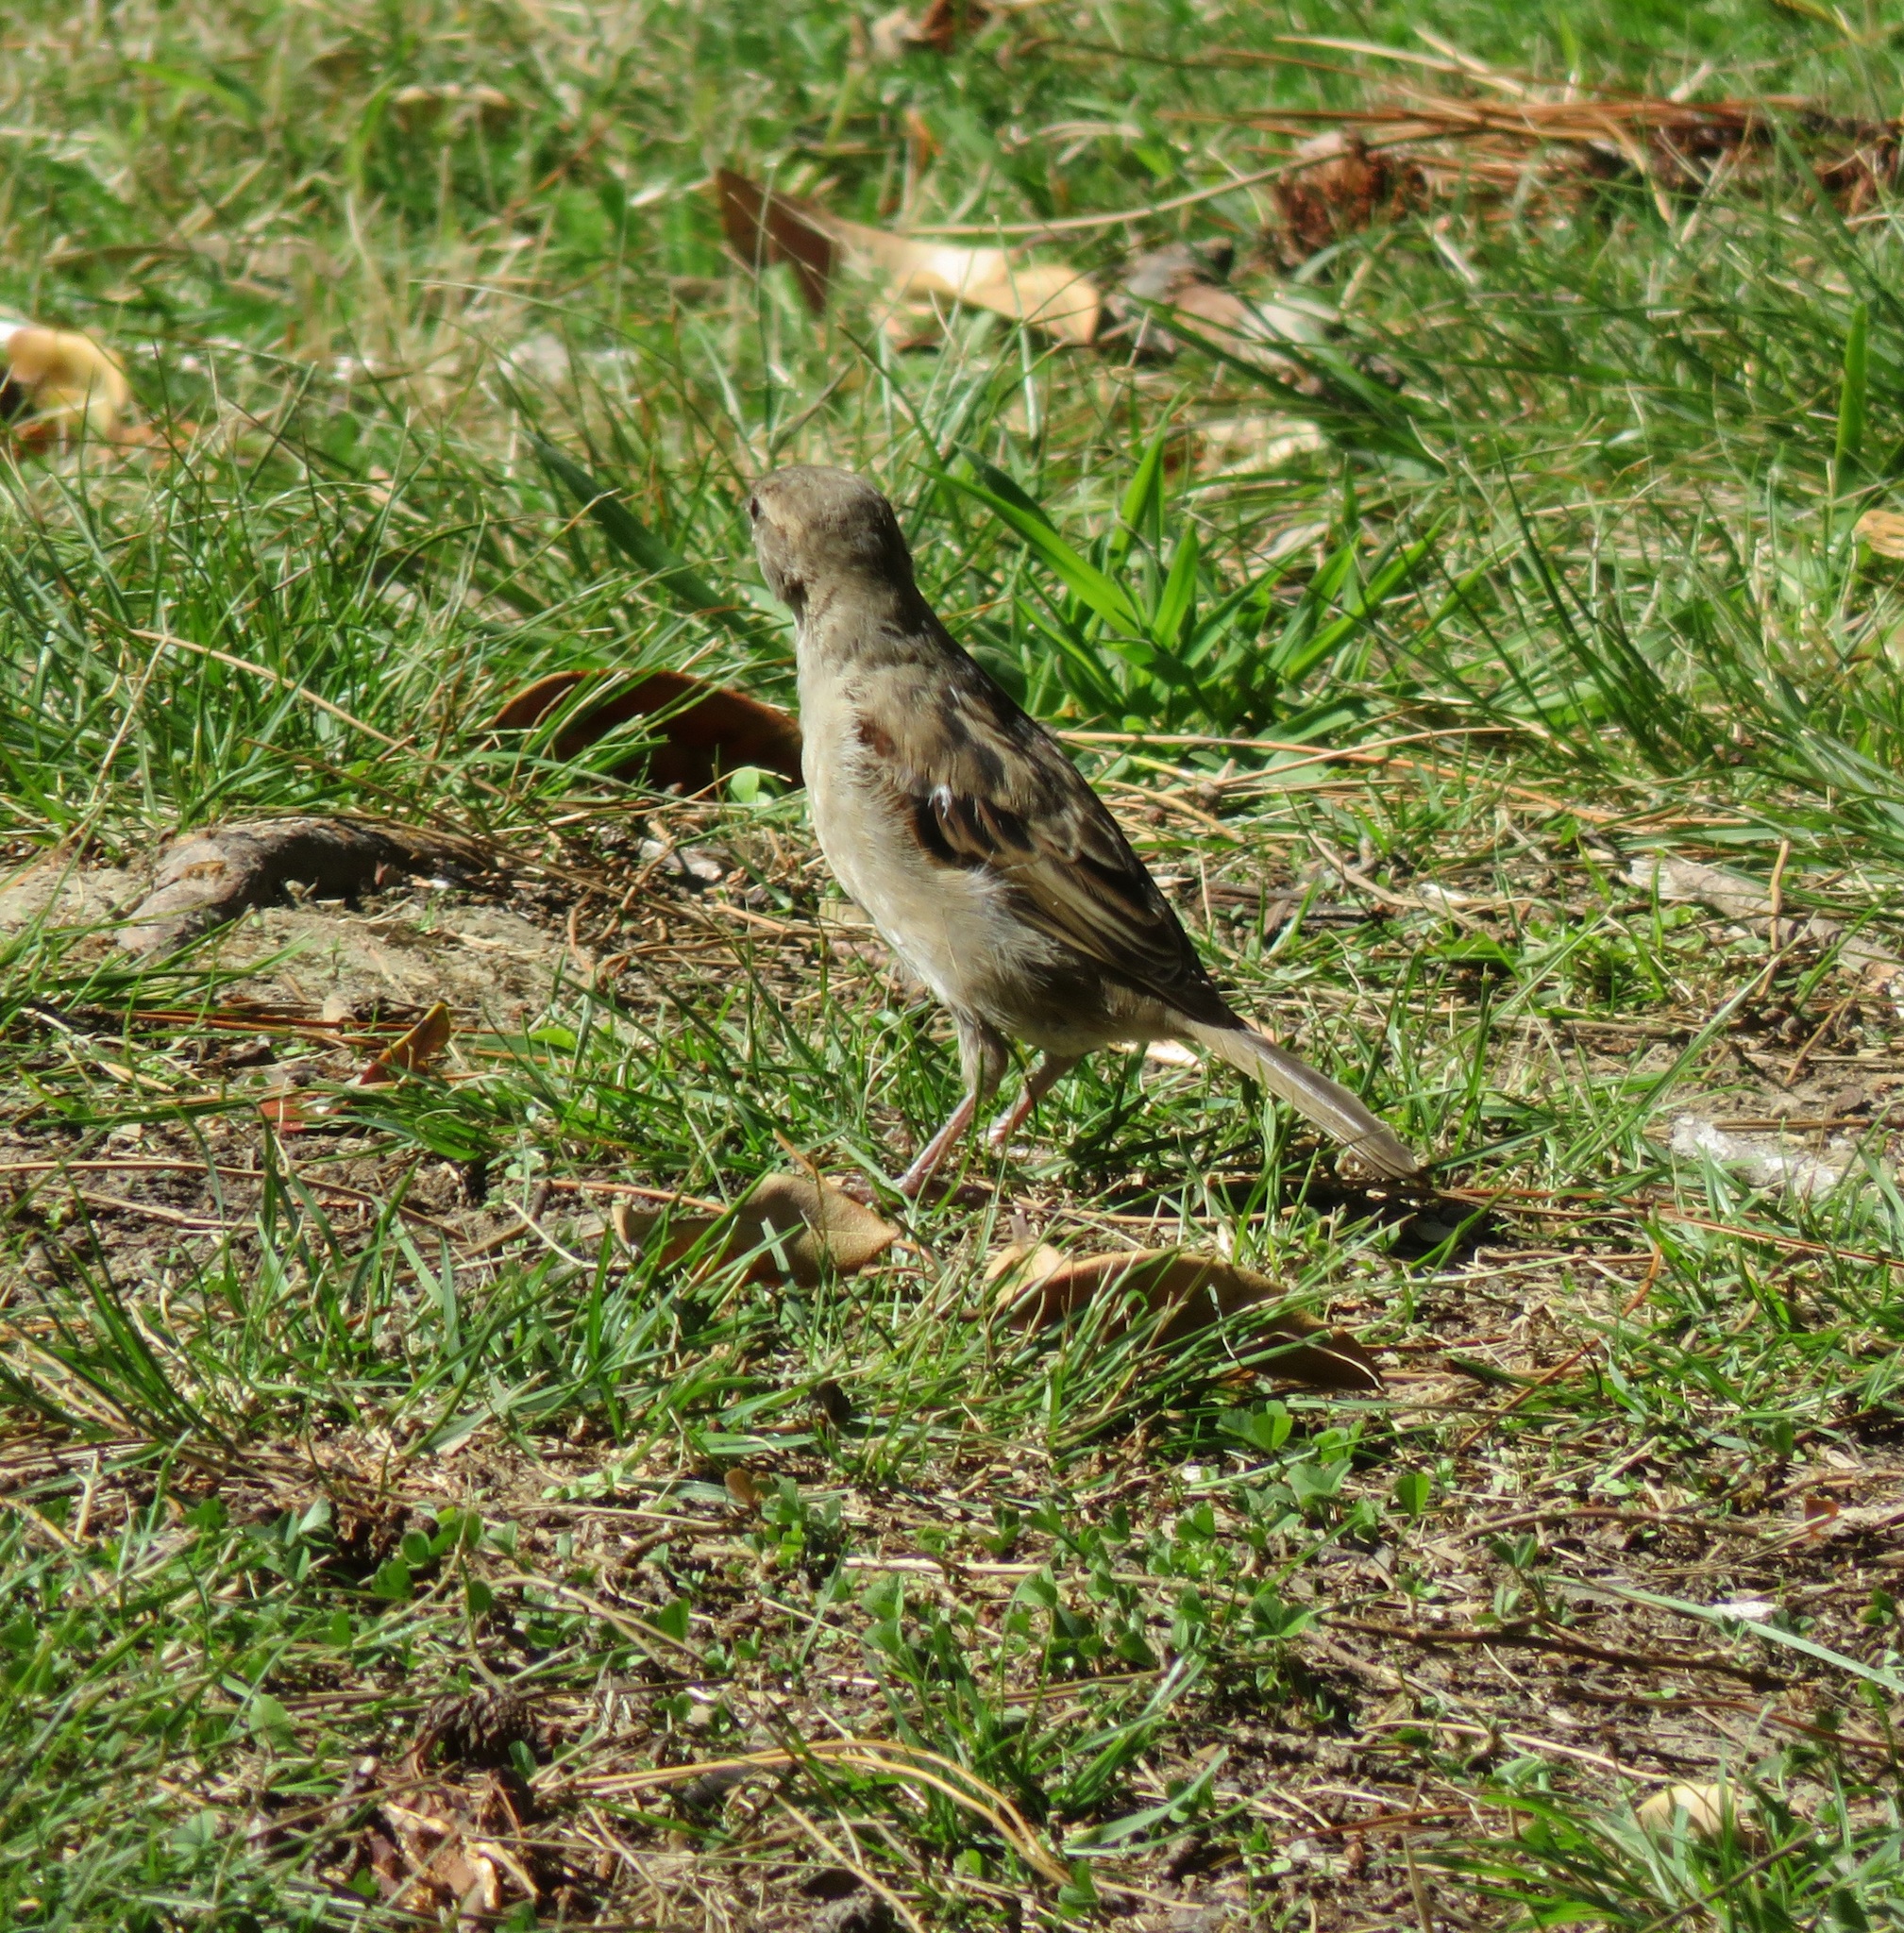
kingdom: Animalia
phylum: Chordata
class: Aves
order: Passeriformes
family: Passeridae
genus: Passer
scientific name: Passer domesticus
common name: House sparrow
